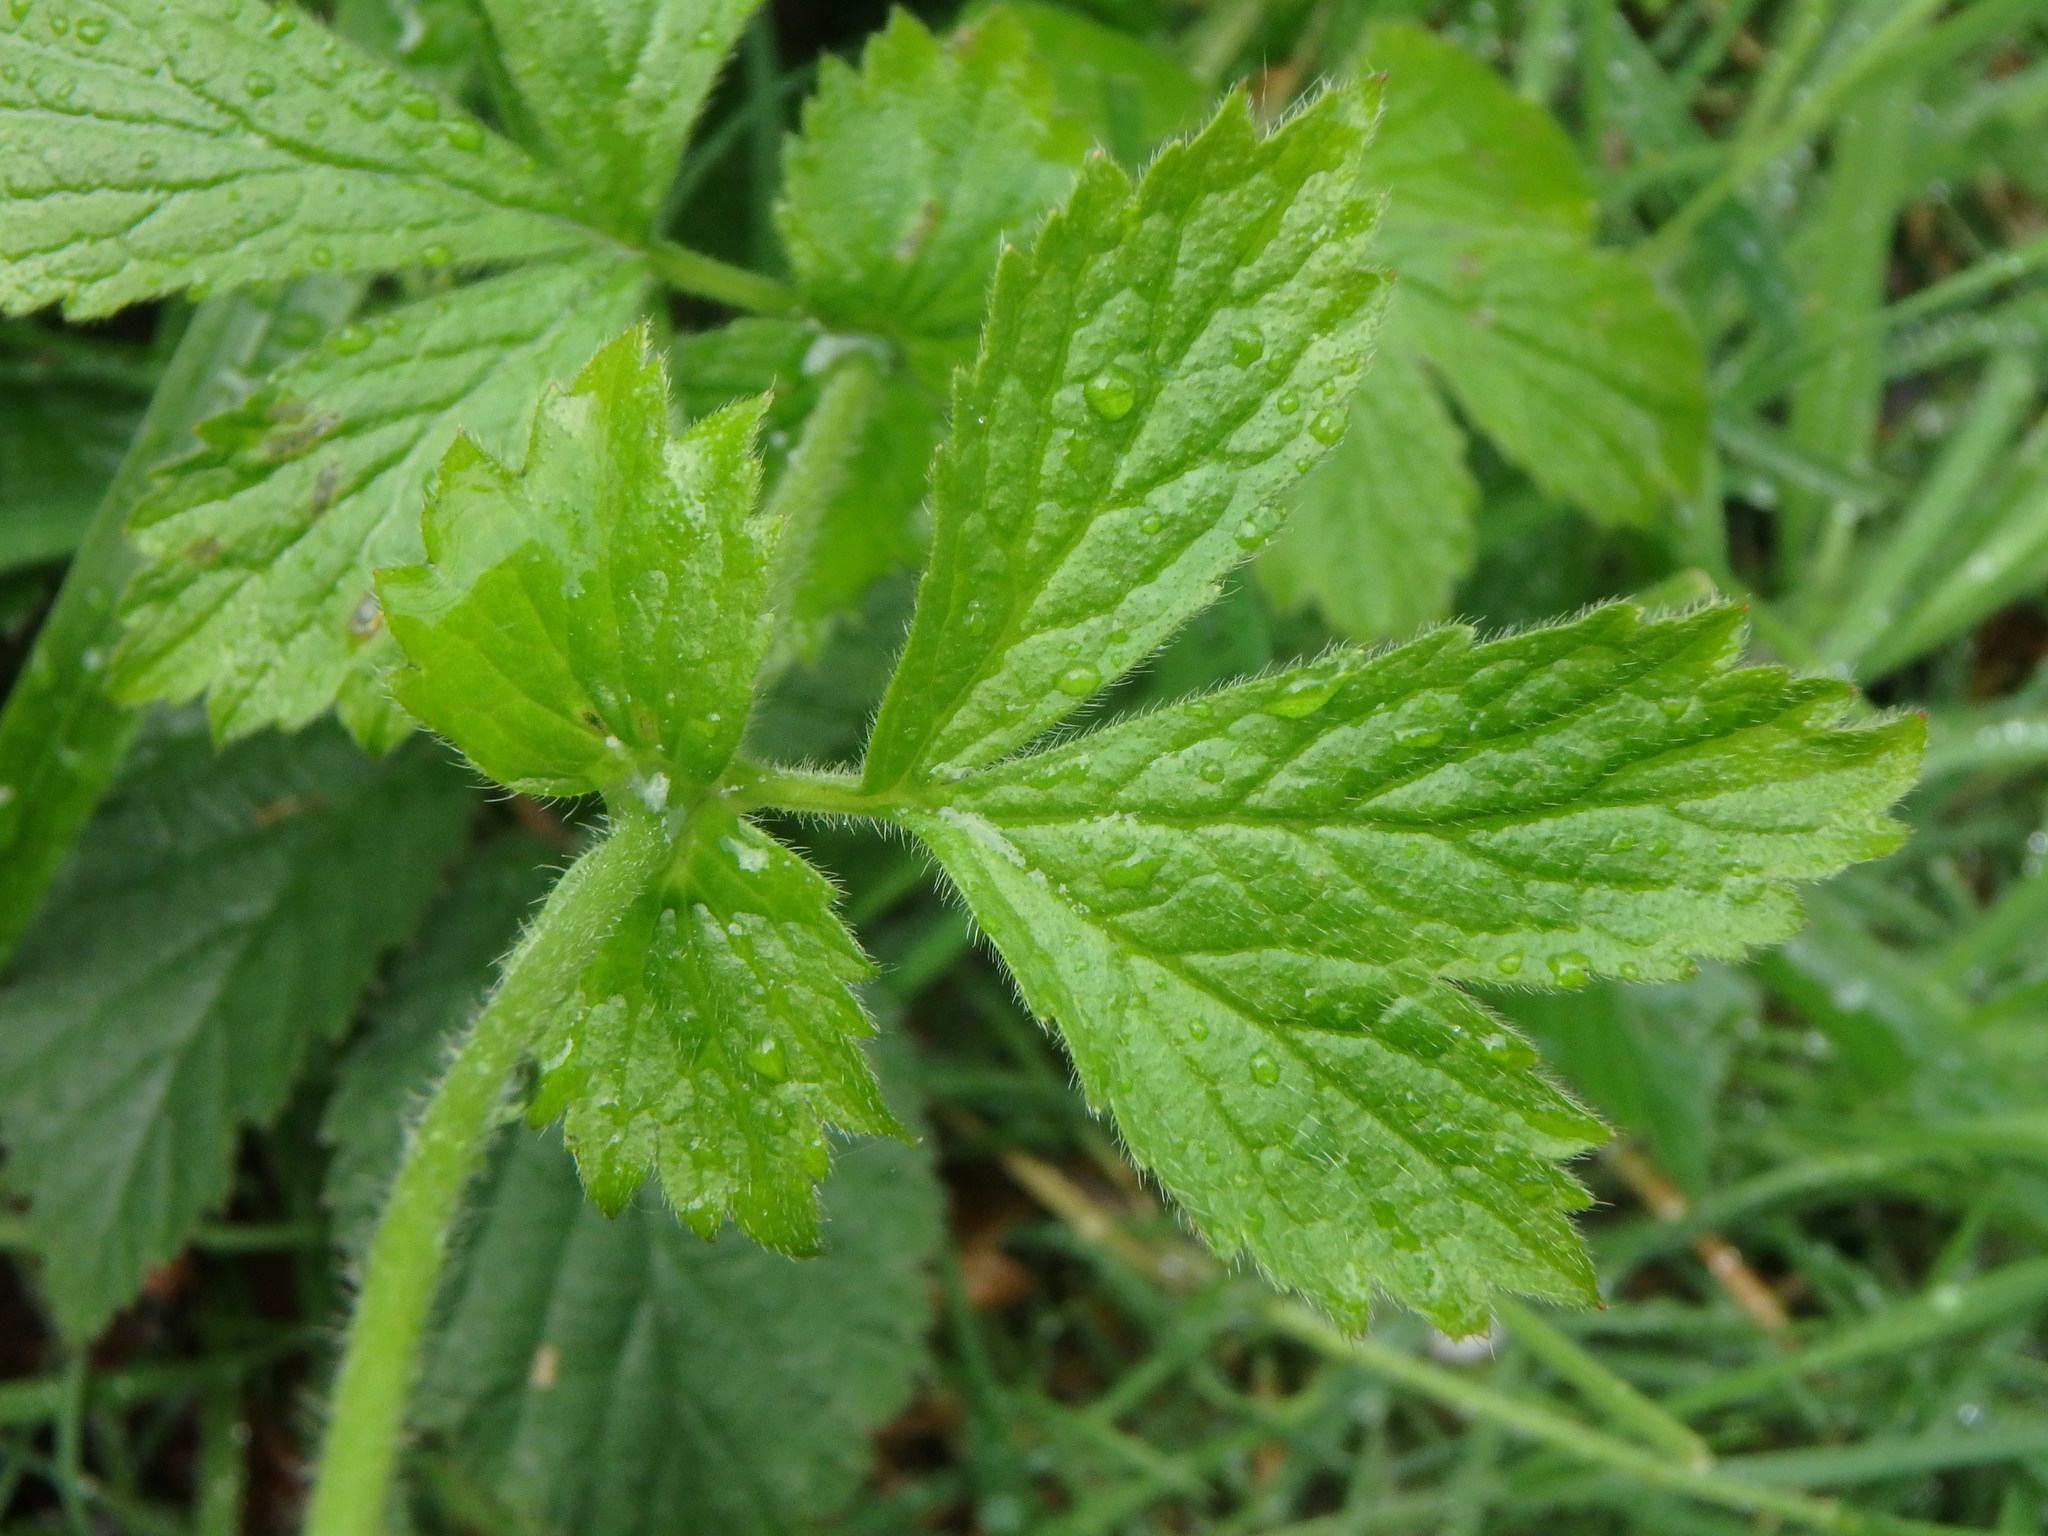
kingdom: Plantae
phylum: Tracheophyta
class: Magnoliopsida
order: Rosales
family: Rosaceae
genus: Geum
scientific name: Geum urbanum
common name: Wood avens
